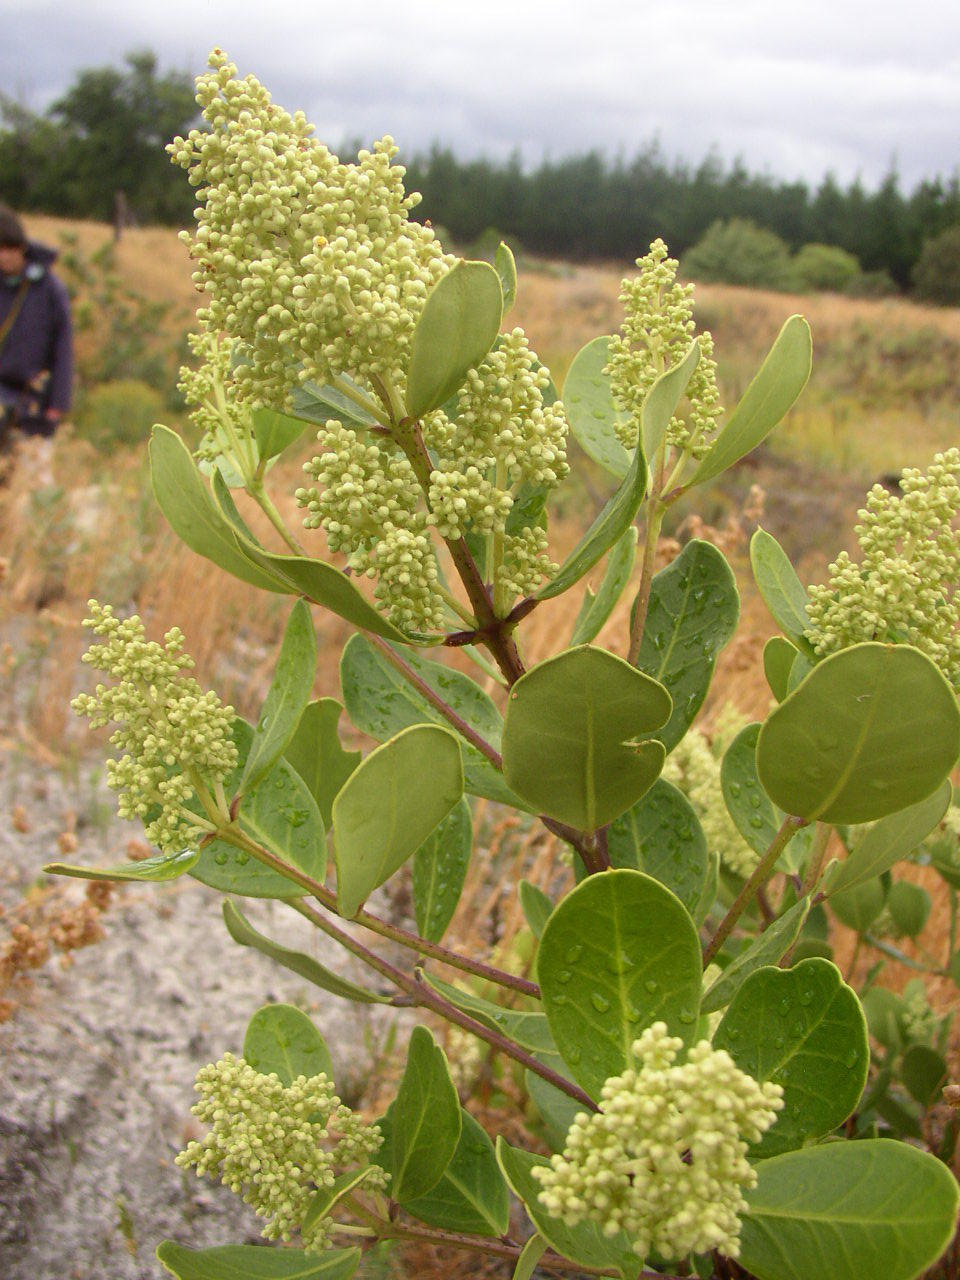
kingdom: Plantae
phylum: Tracheophyta
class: Magnoliopsida
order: Lamiales
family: Oleaceae
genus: Olea
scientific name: Olea capensis
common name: Black ironwood
